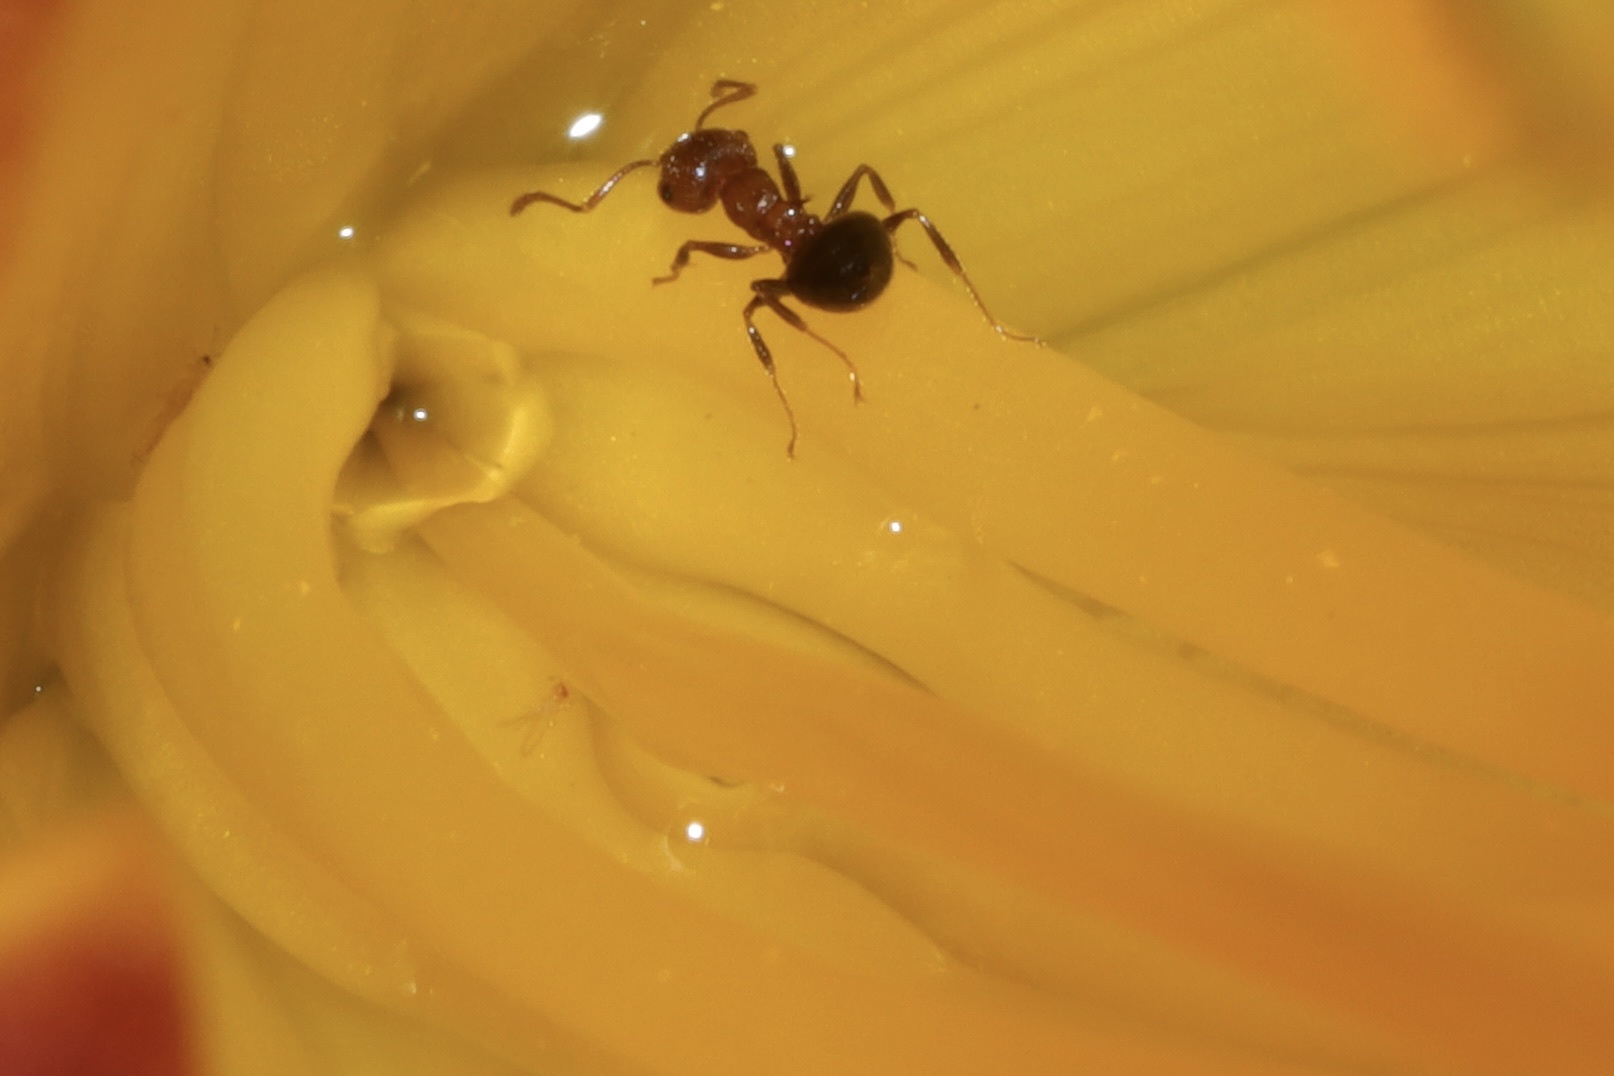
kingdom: Animalia
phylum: Arthropoda
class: Insecta
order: Hymenoptera
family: Formicidae
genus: Crematogaster
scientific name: Crematogaster laeviuscula
